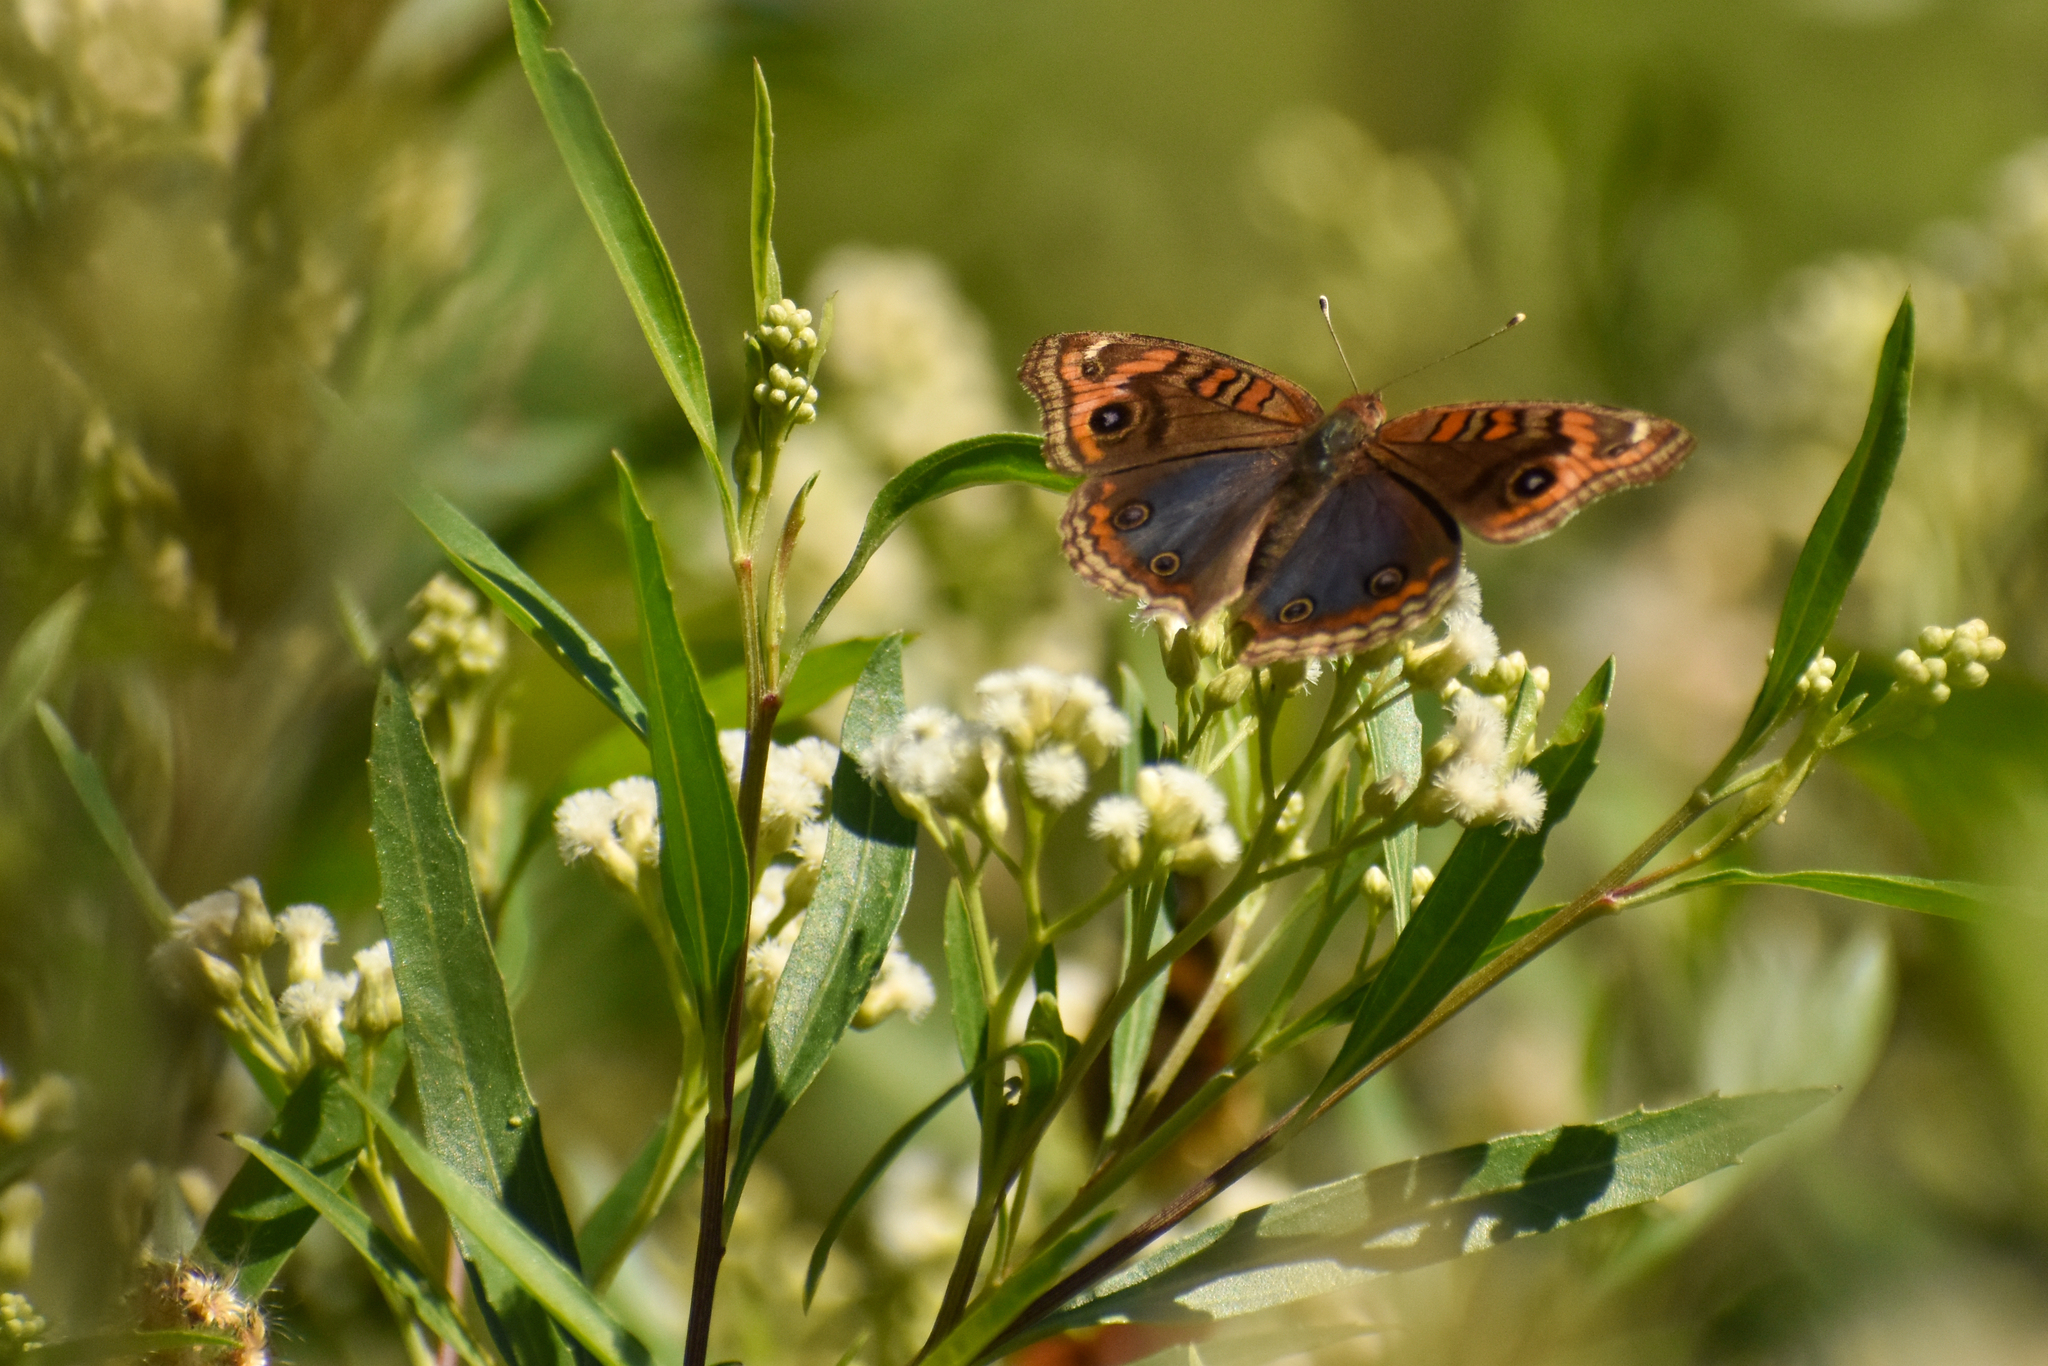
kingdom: Animalia
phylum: Arthropoda
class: Insecta
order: Lepidoptera
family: Nymphalidae
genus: Junonia
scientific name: Junonia lavinia
